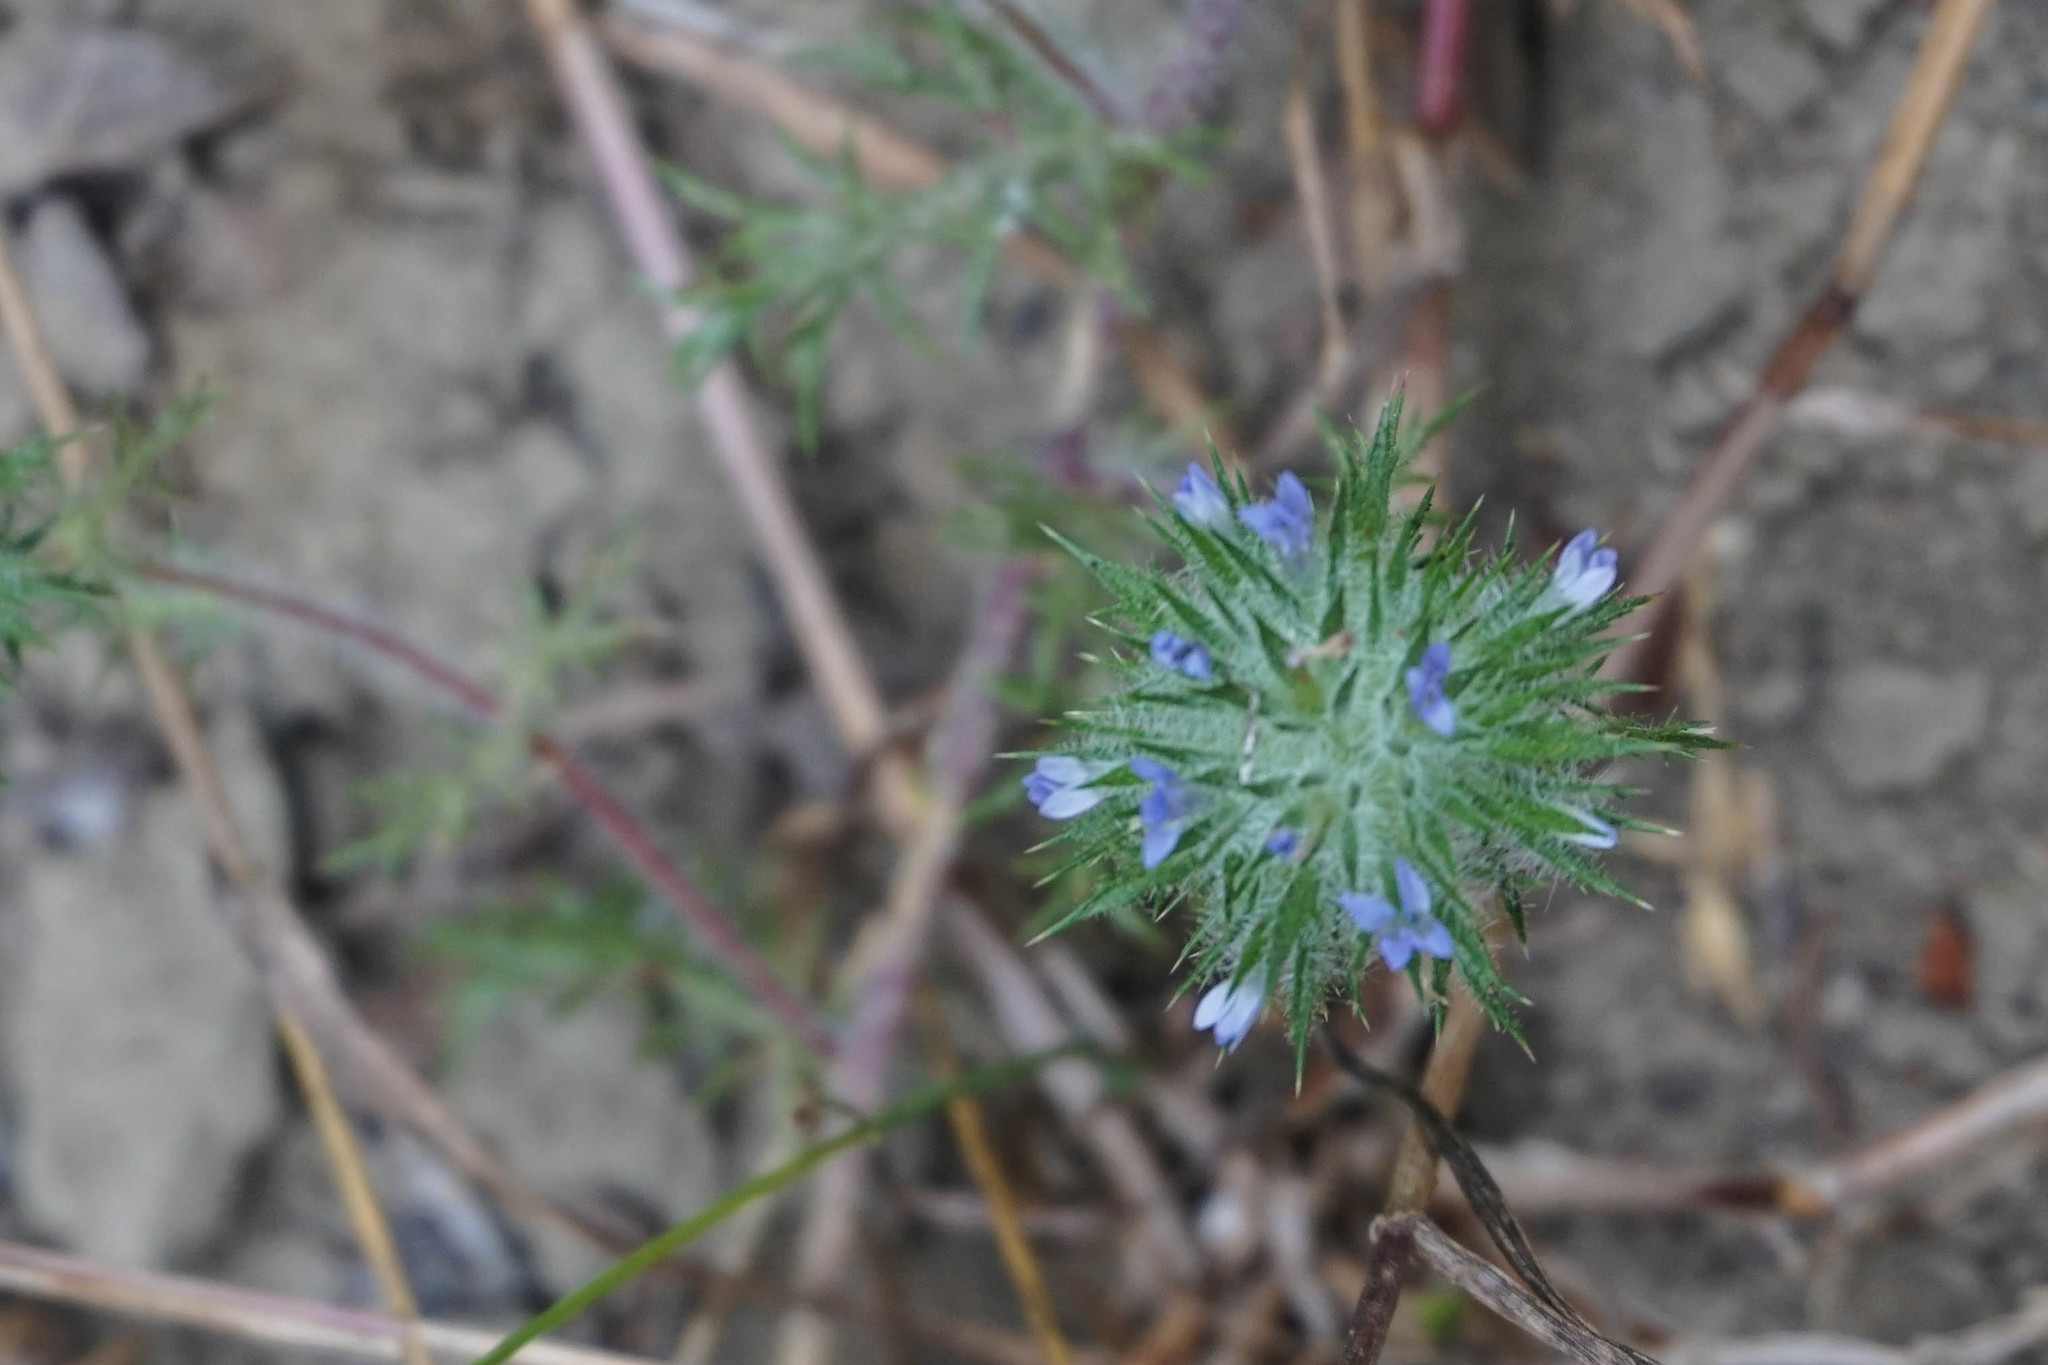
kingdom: Plantae
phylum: Tracheophyta
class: Magnoliopsida
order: Ericales
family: Polemoniaceae
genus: Navarretia
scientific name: Navarretia squarrosa
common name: Skunkweed
